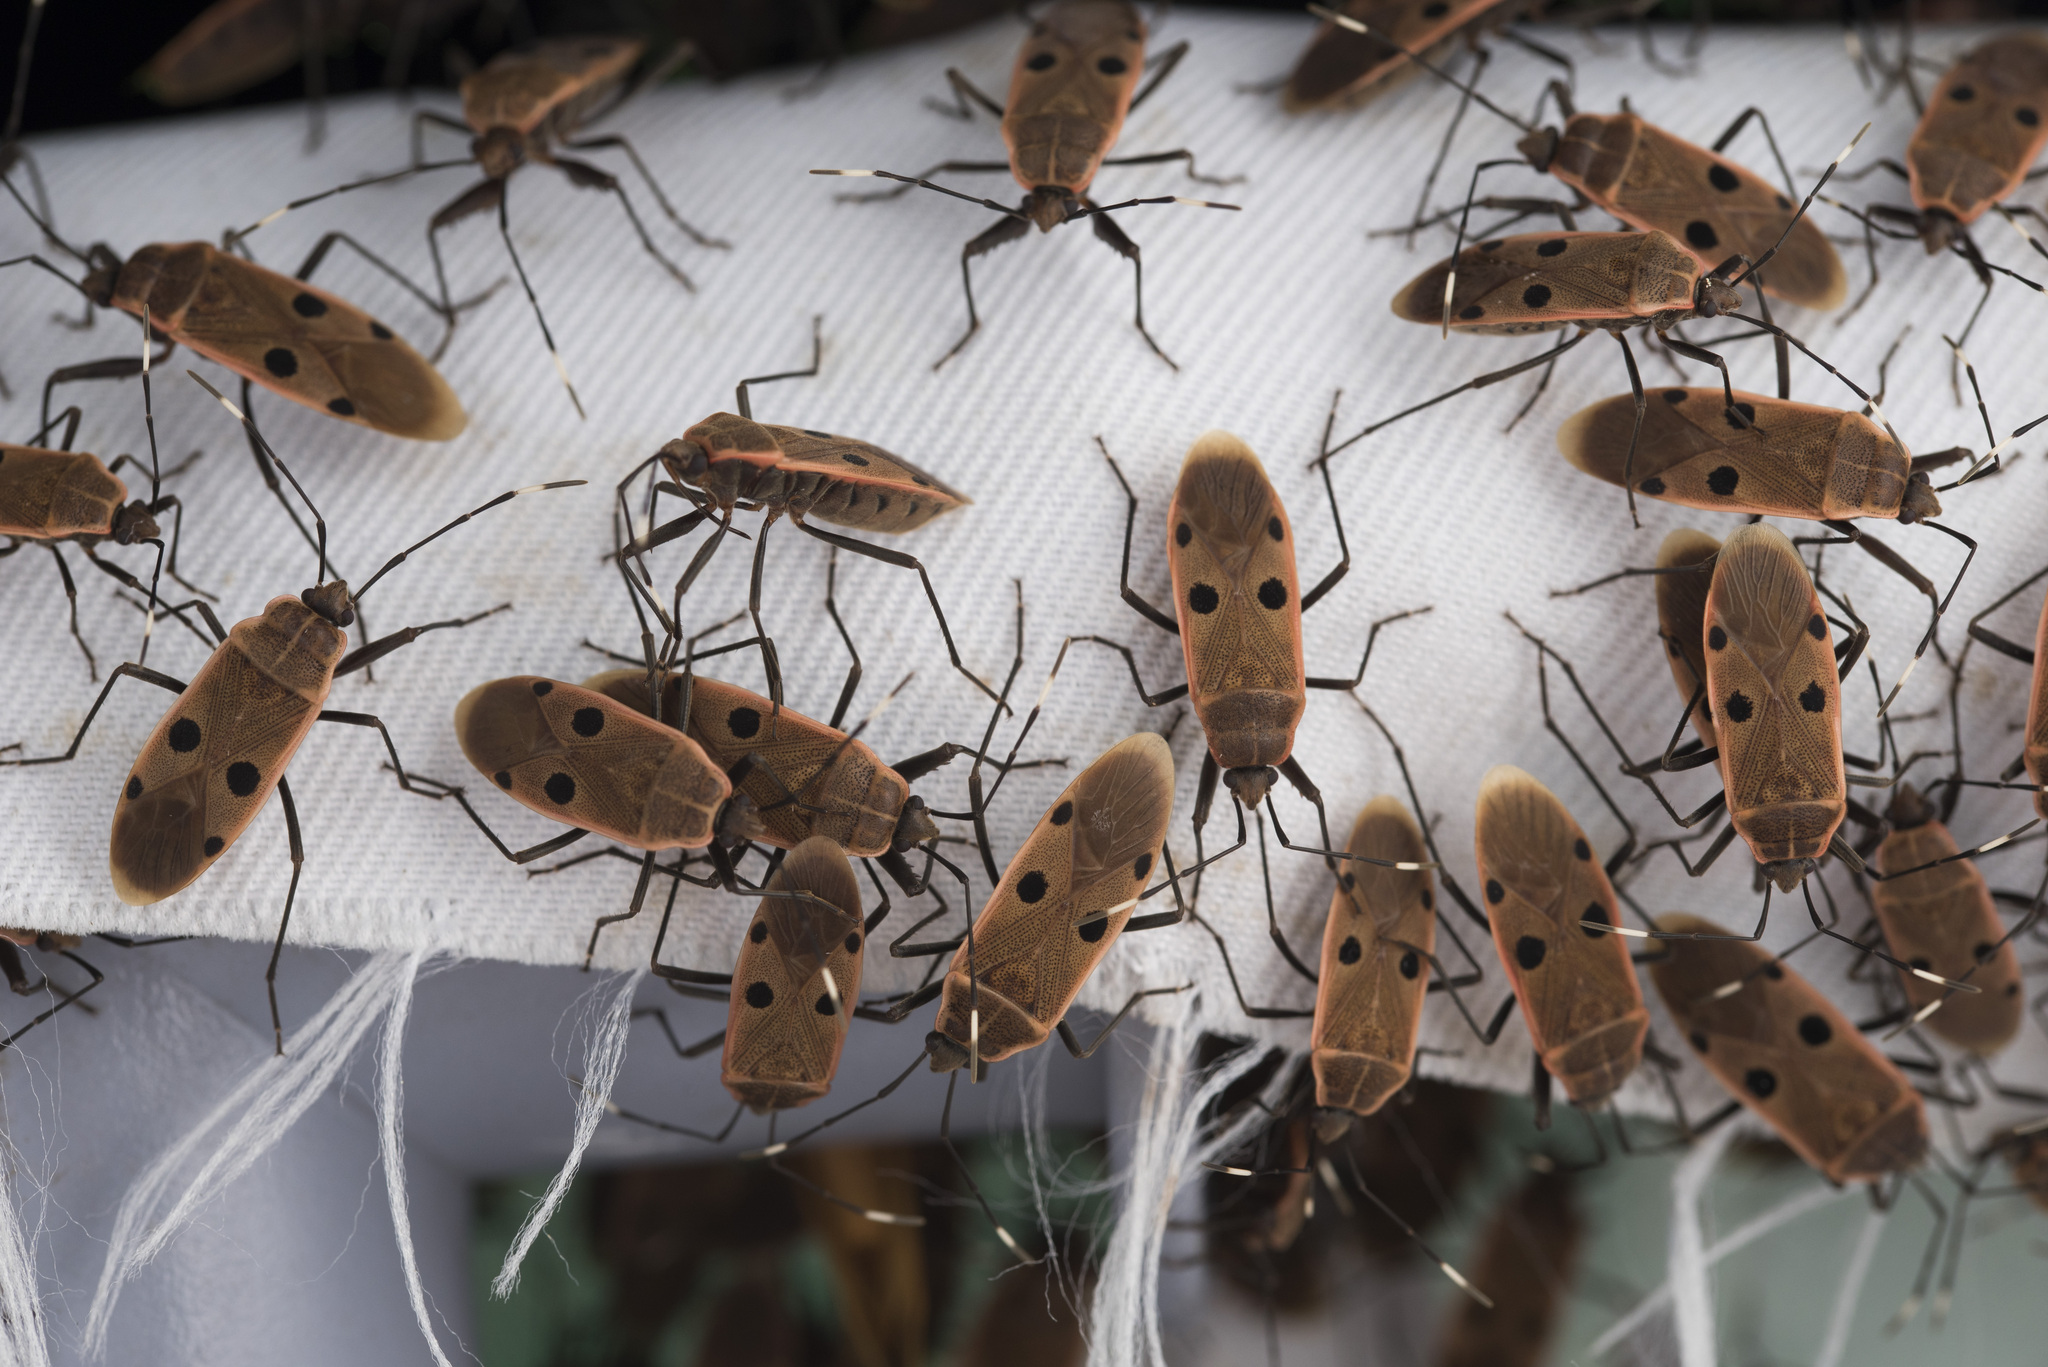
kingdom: Animalia
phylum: Arthropoda
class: Insecta
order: Hemiptera
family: Largidae
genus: Physopelta
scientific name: Physopelta quadriguttata
